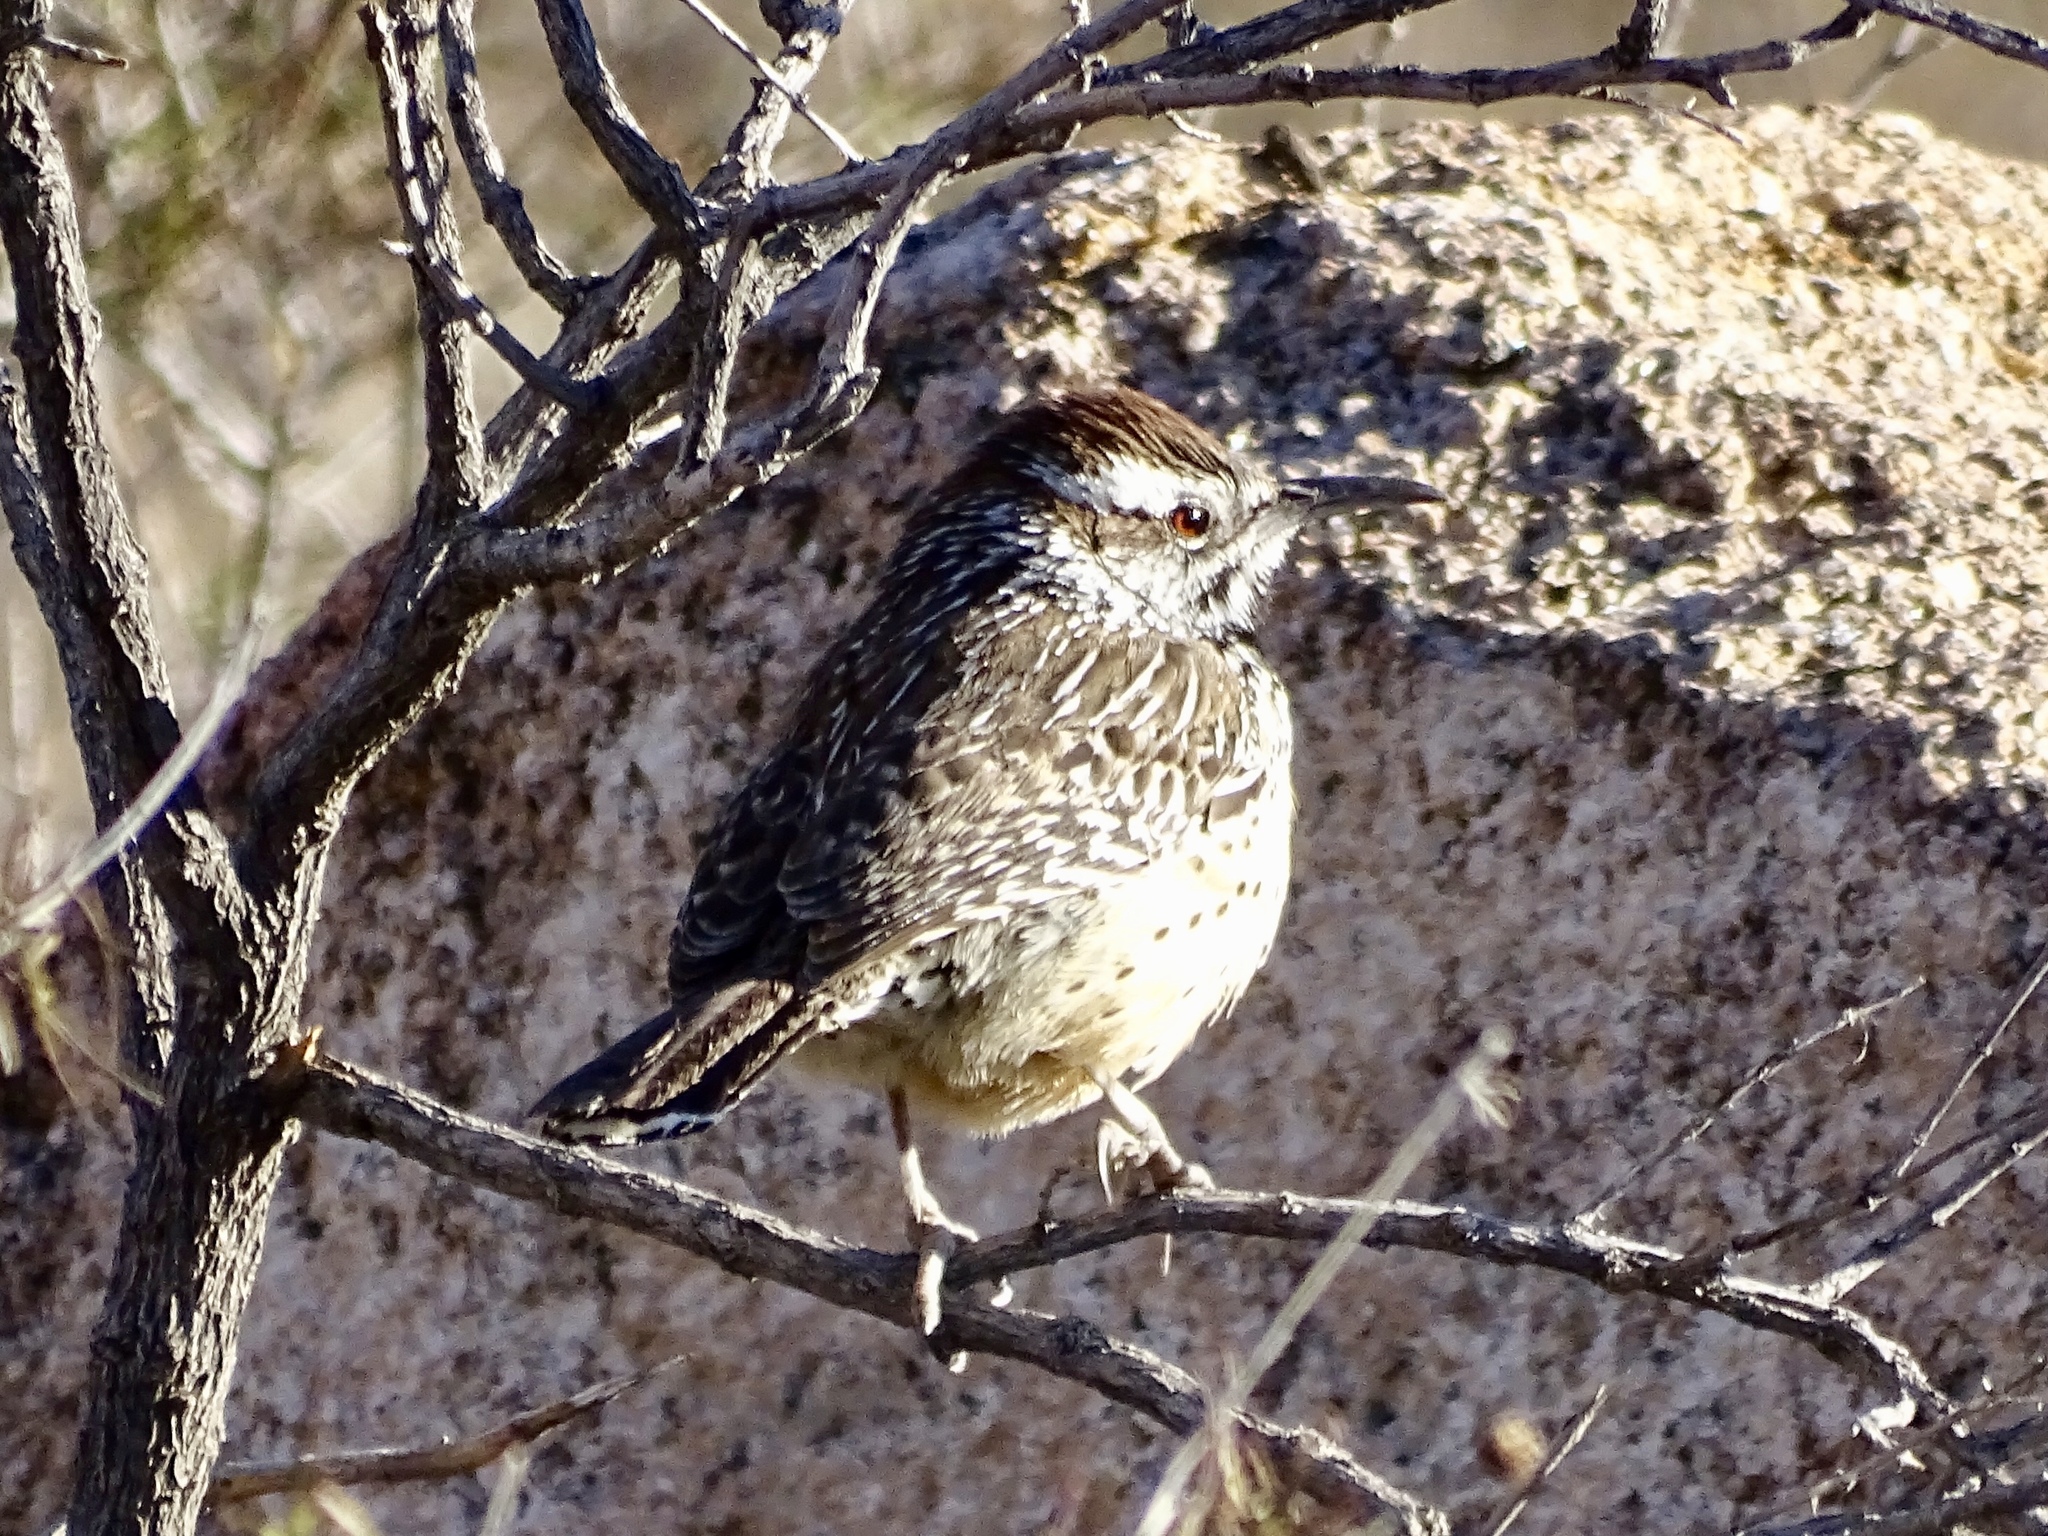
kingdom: Animalia
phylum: Chordata
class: Aves
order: Passeriformes
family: Troglodytidae
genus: Campylorhynchus
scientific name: Campylorhynchus brunneicapillus
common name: Cactus wren
